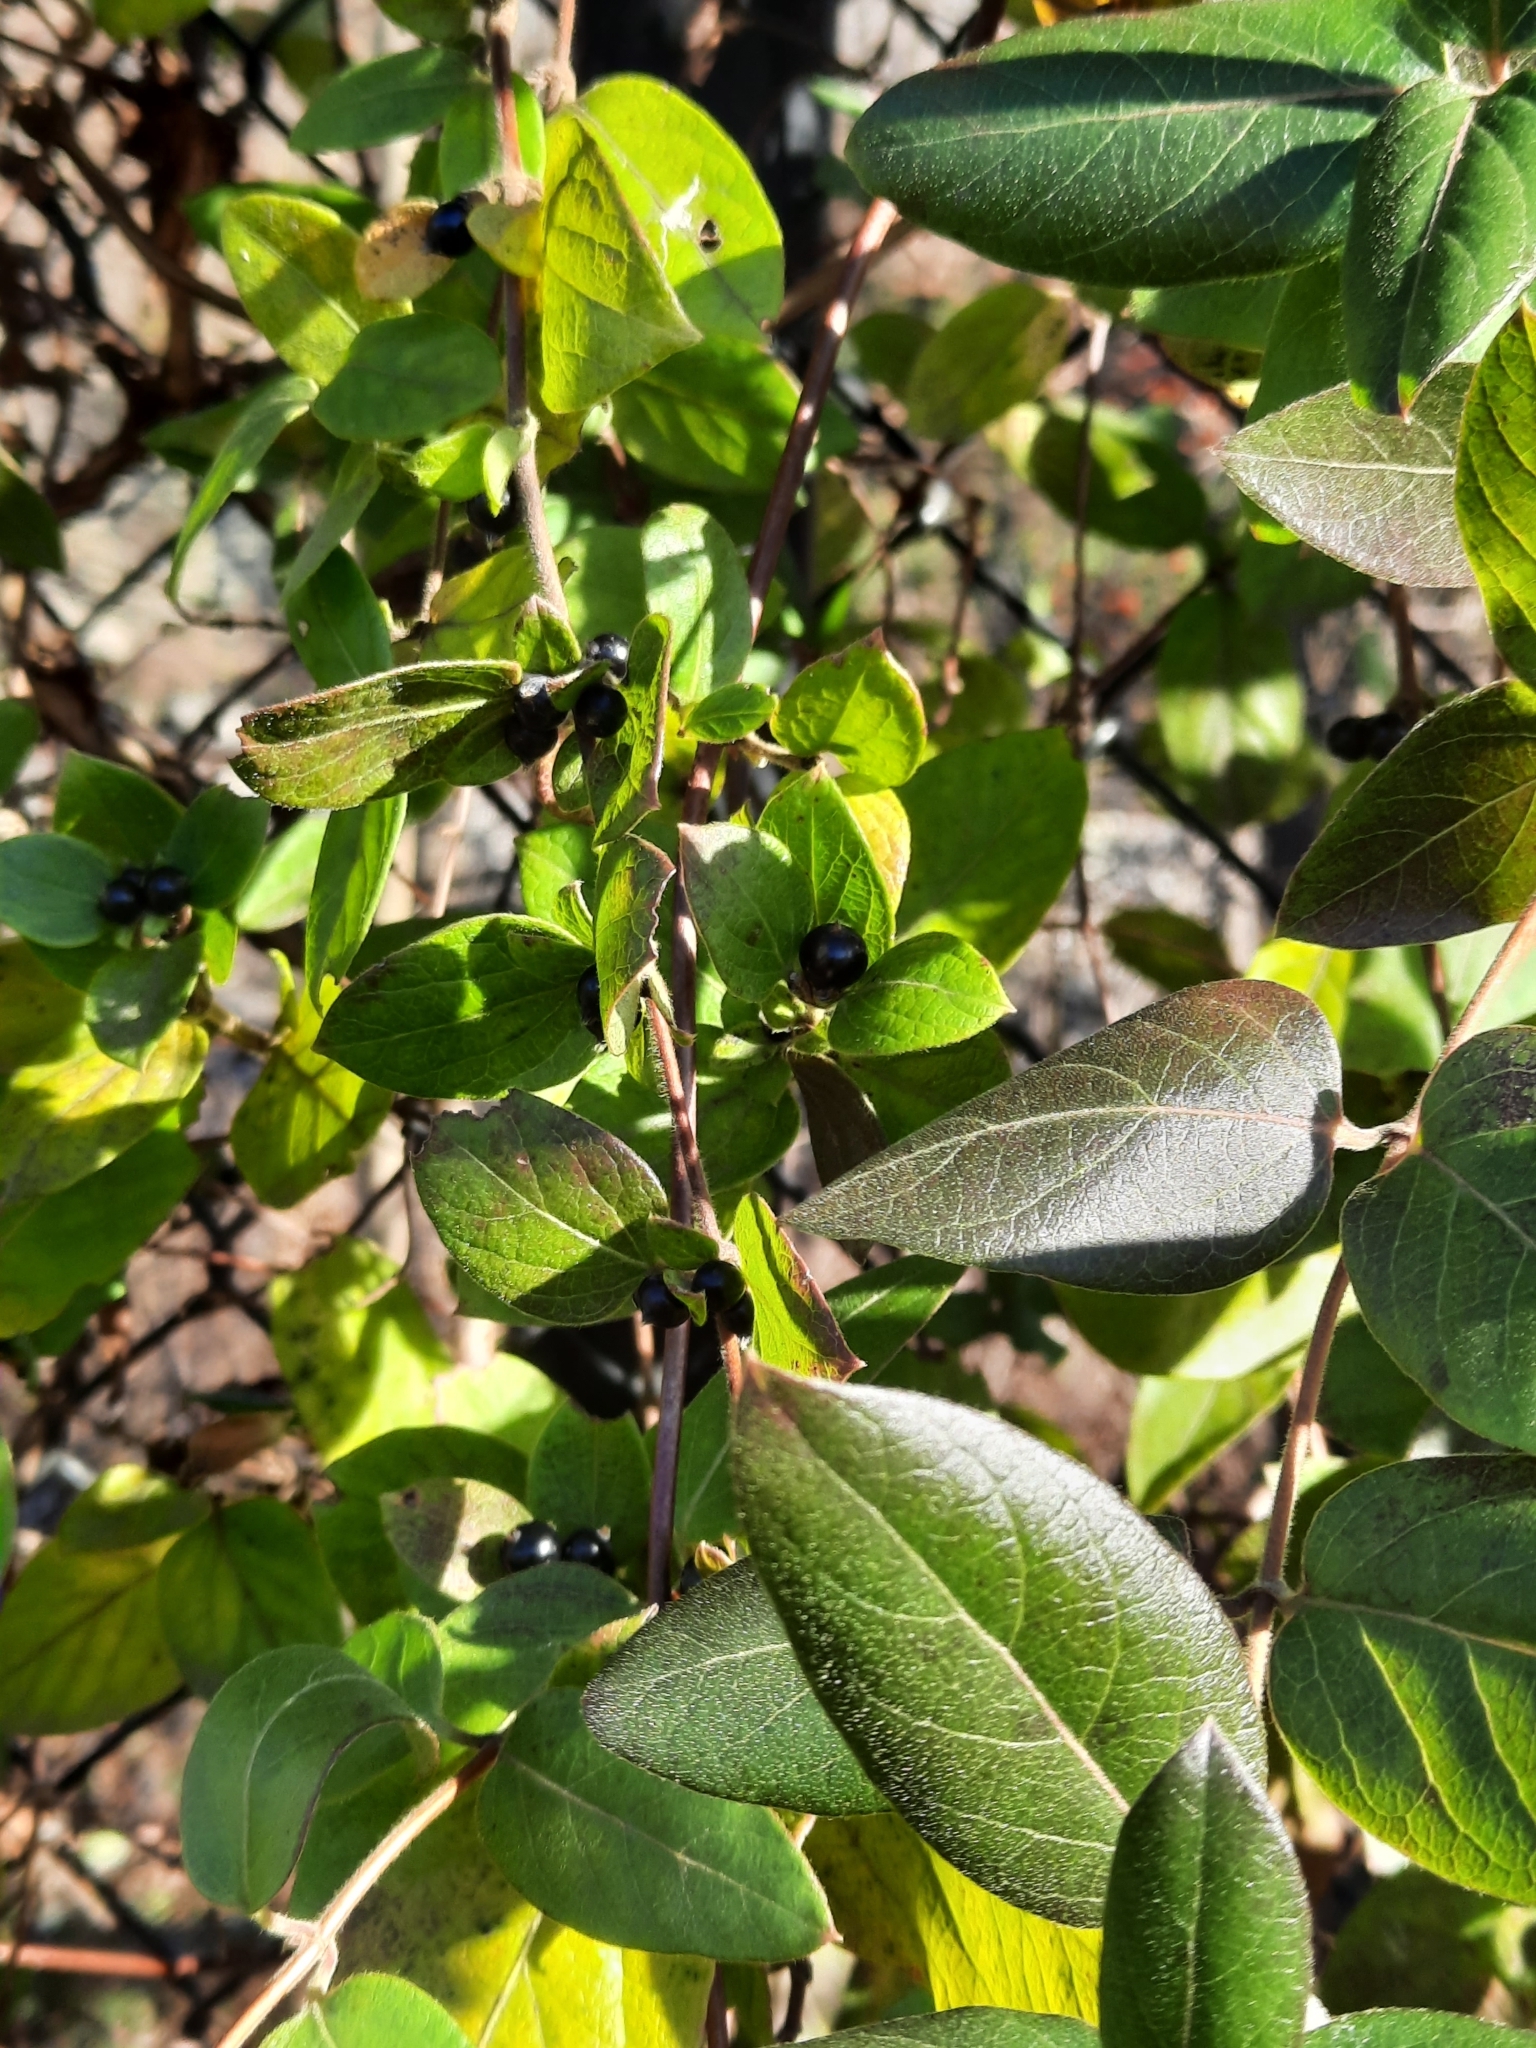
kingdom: Plantae
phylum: Tracheophyta
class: Magnoliopsida
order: Dipsacales
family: Caprifoliaceae
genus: Lonicera
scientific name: Lonicera japonica
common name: Japanese honeysuckle
